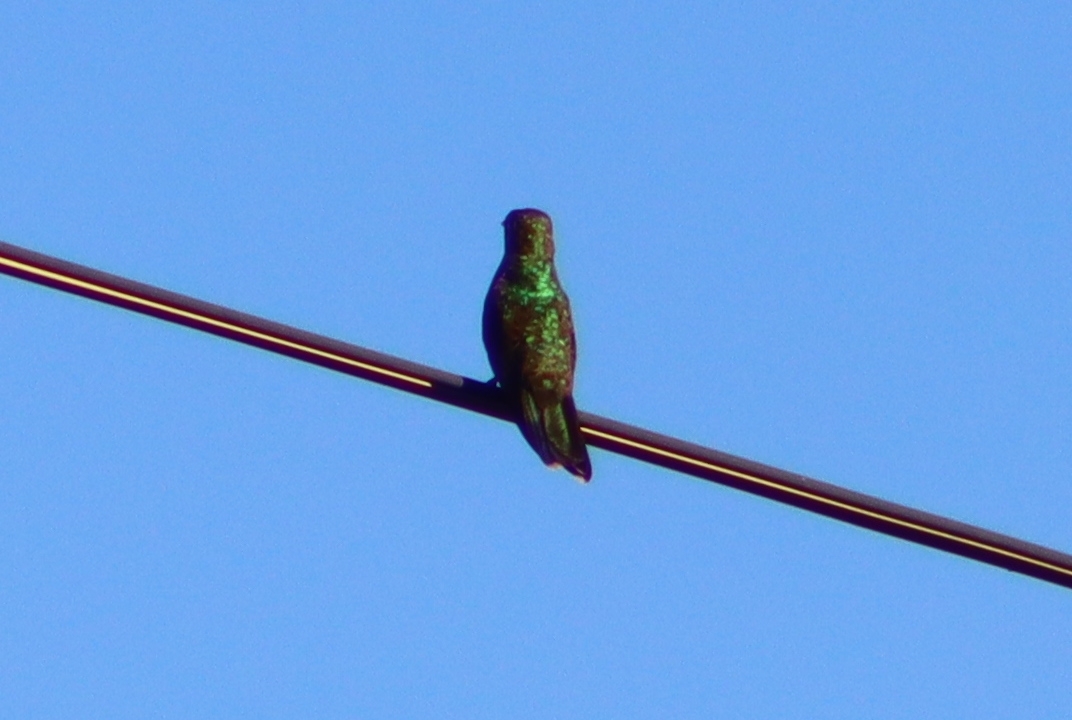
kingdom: Animalia
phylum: Chordata
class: Aves
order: Apodiformes
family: Trochilidae
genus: Saucerottia
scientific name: Saucerottia beryllina
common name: Berylline hummingbird
